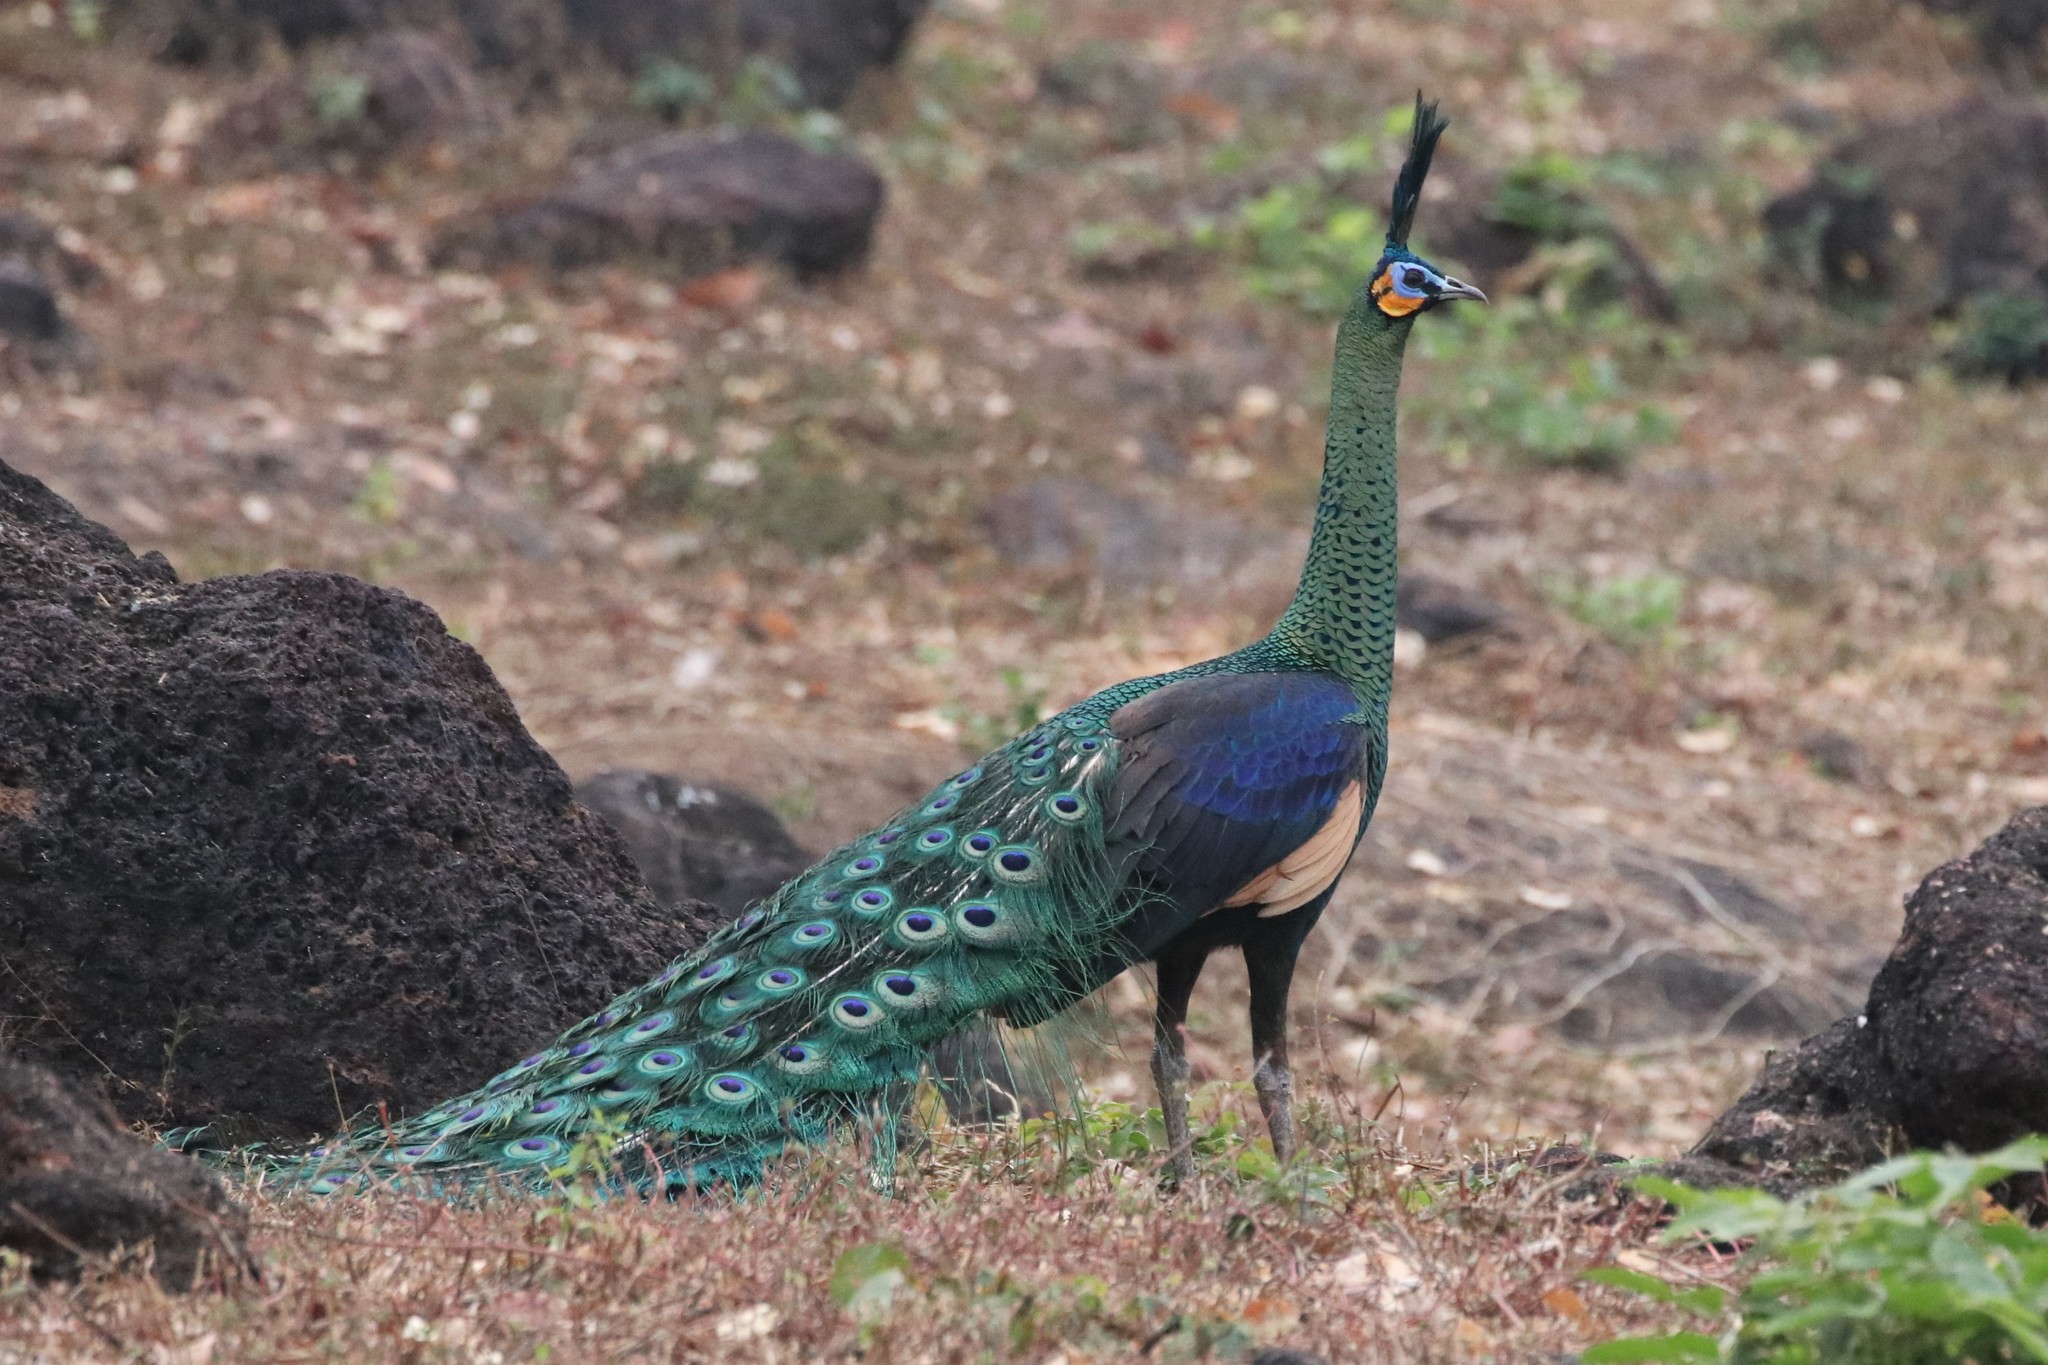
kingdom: Animalia
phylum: Chordata
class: Aves
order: Galliformes
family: Phasianidae
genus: Pavo
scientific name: Pavo muticus
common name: Green peafowl
